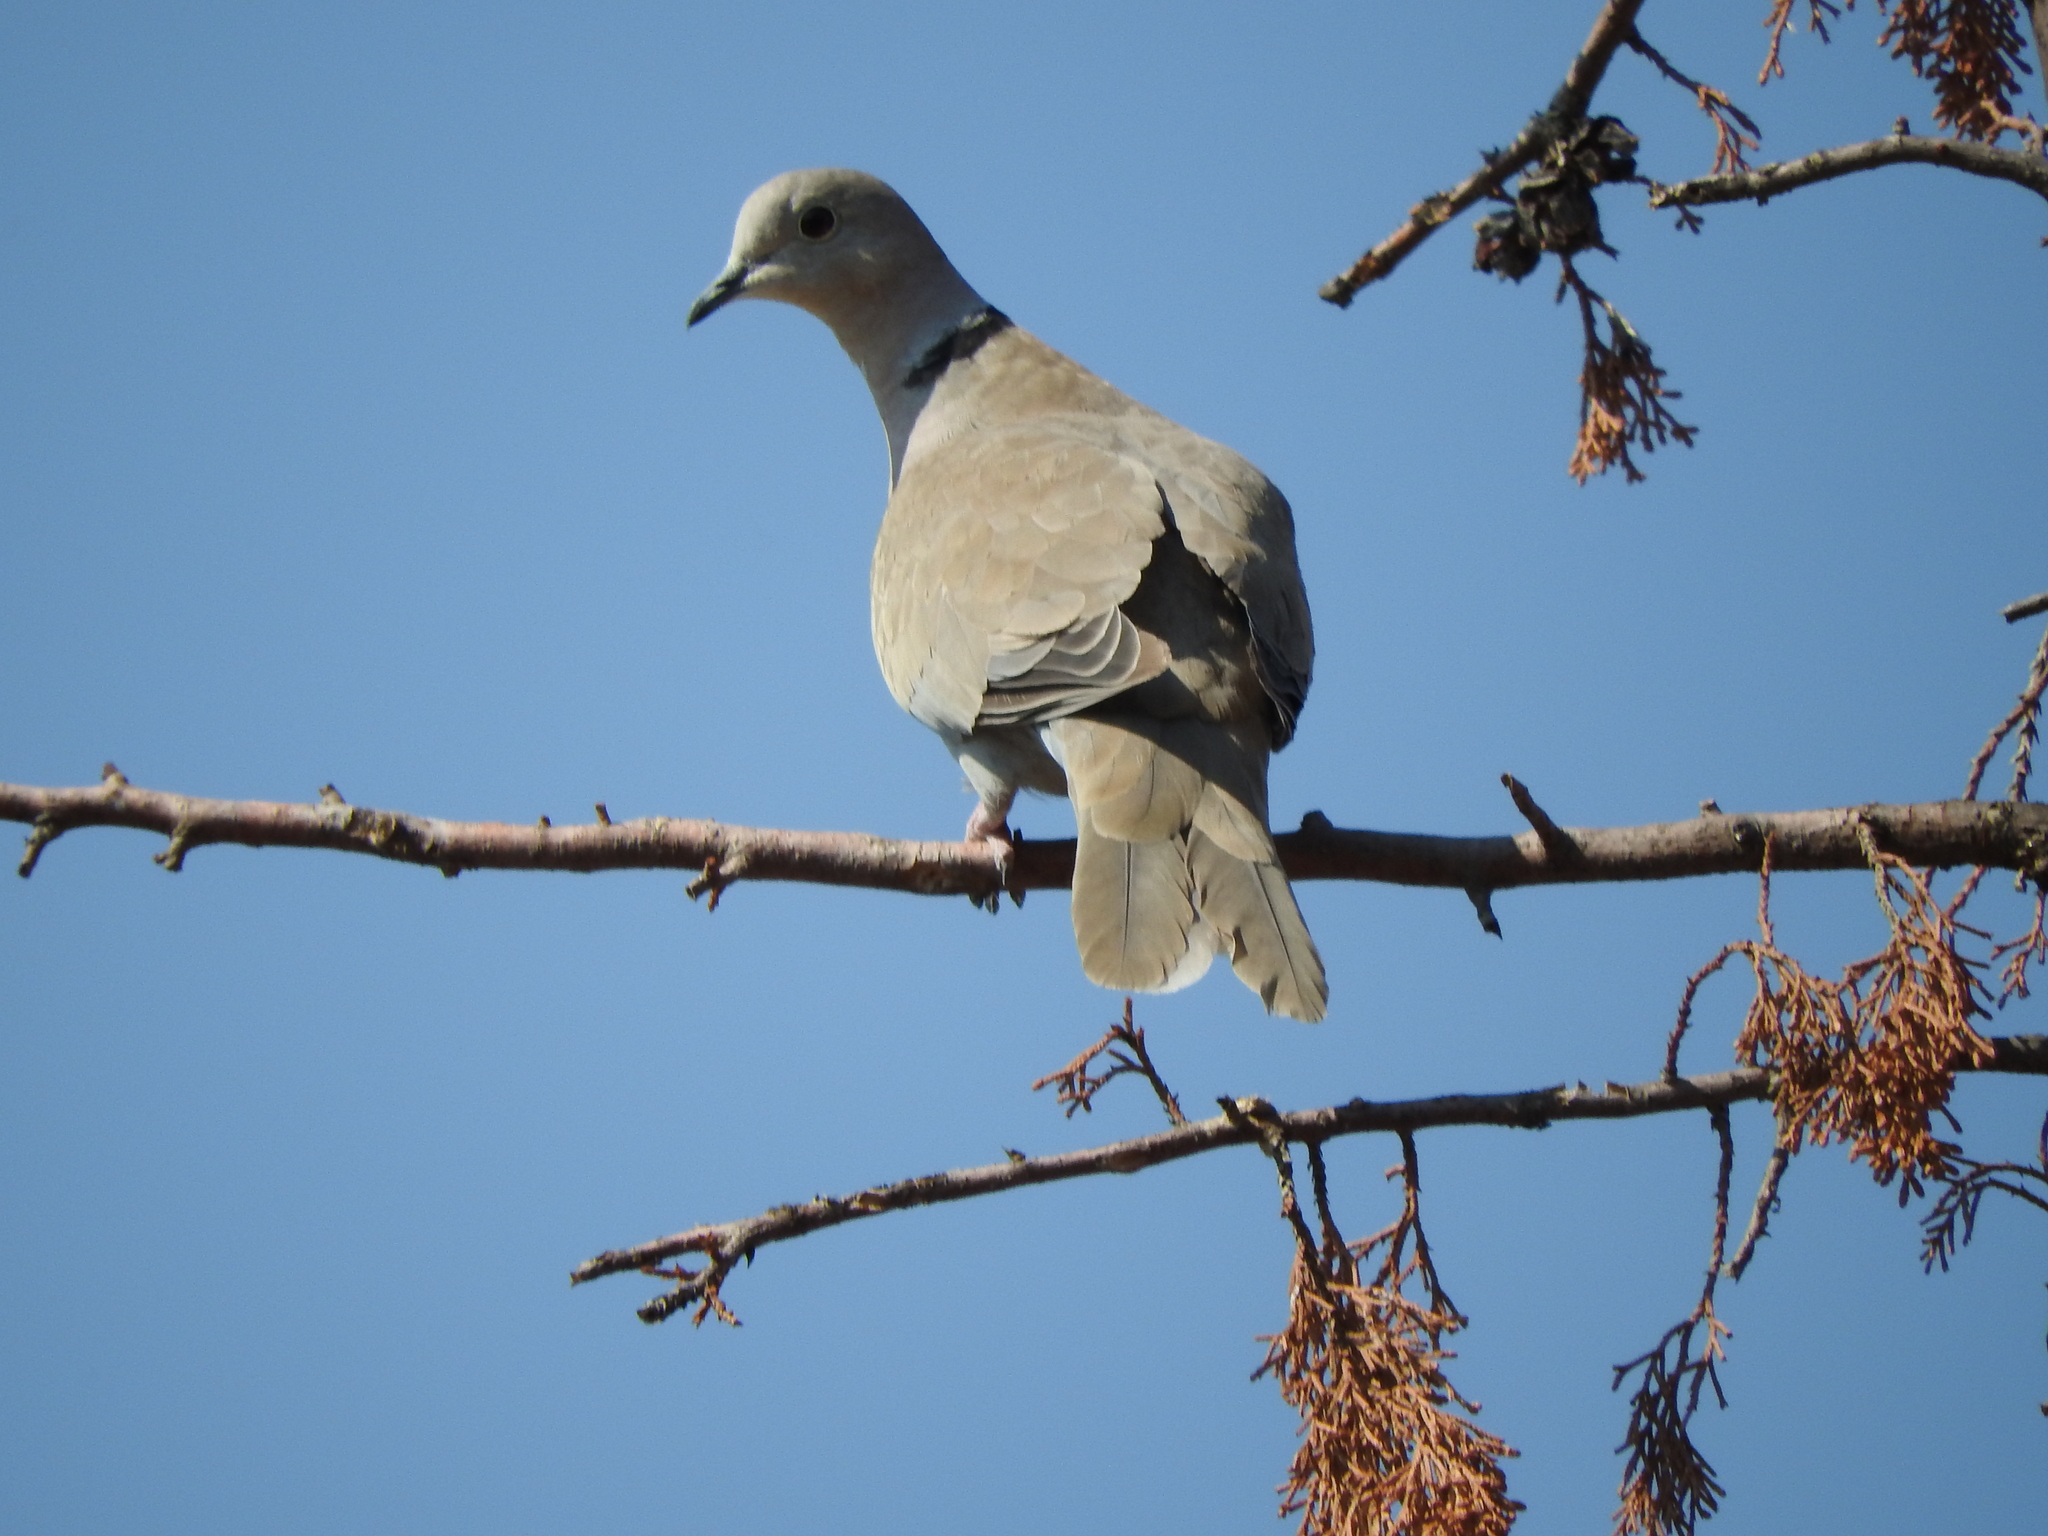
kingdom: Animalia
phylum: Chordata
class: Aves
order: Columbiformes
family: Columbidae
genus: Streptopelia
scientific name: Streptopelia decaocto
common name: Eurasian collared dove
